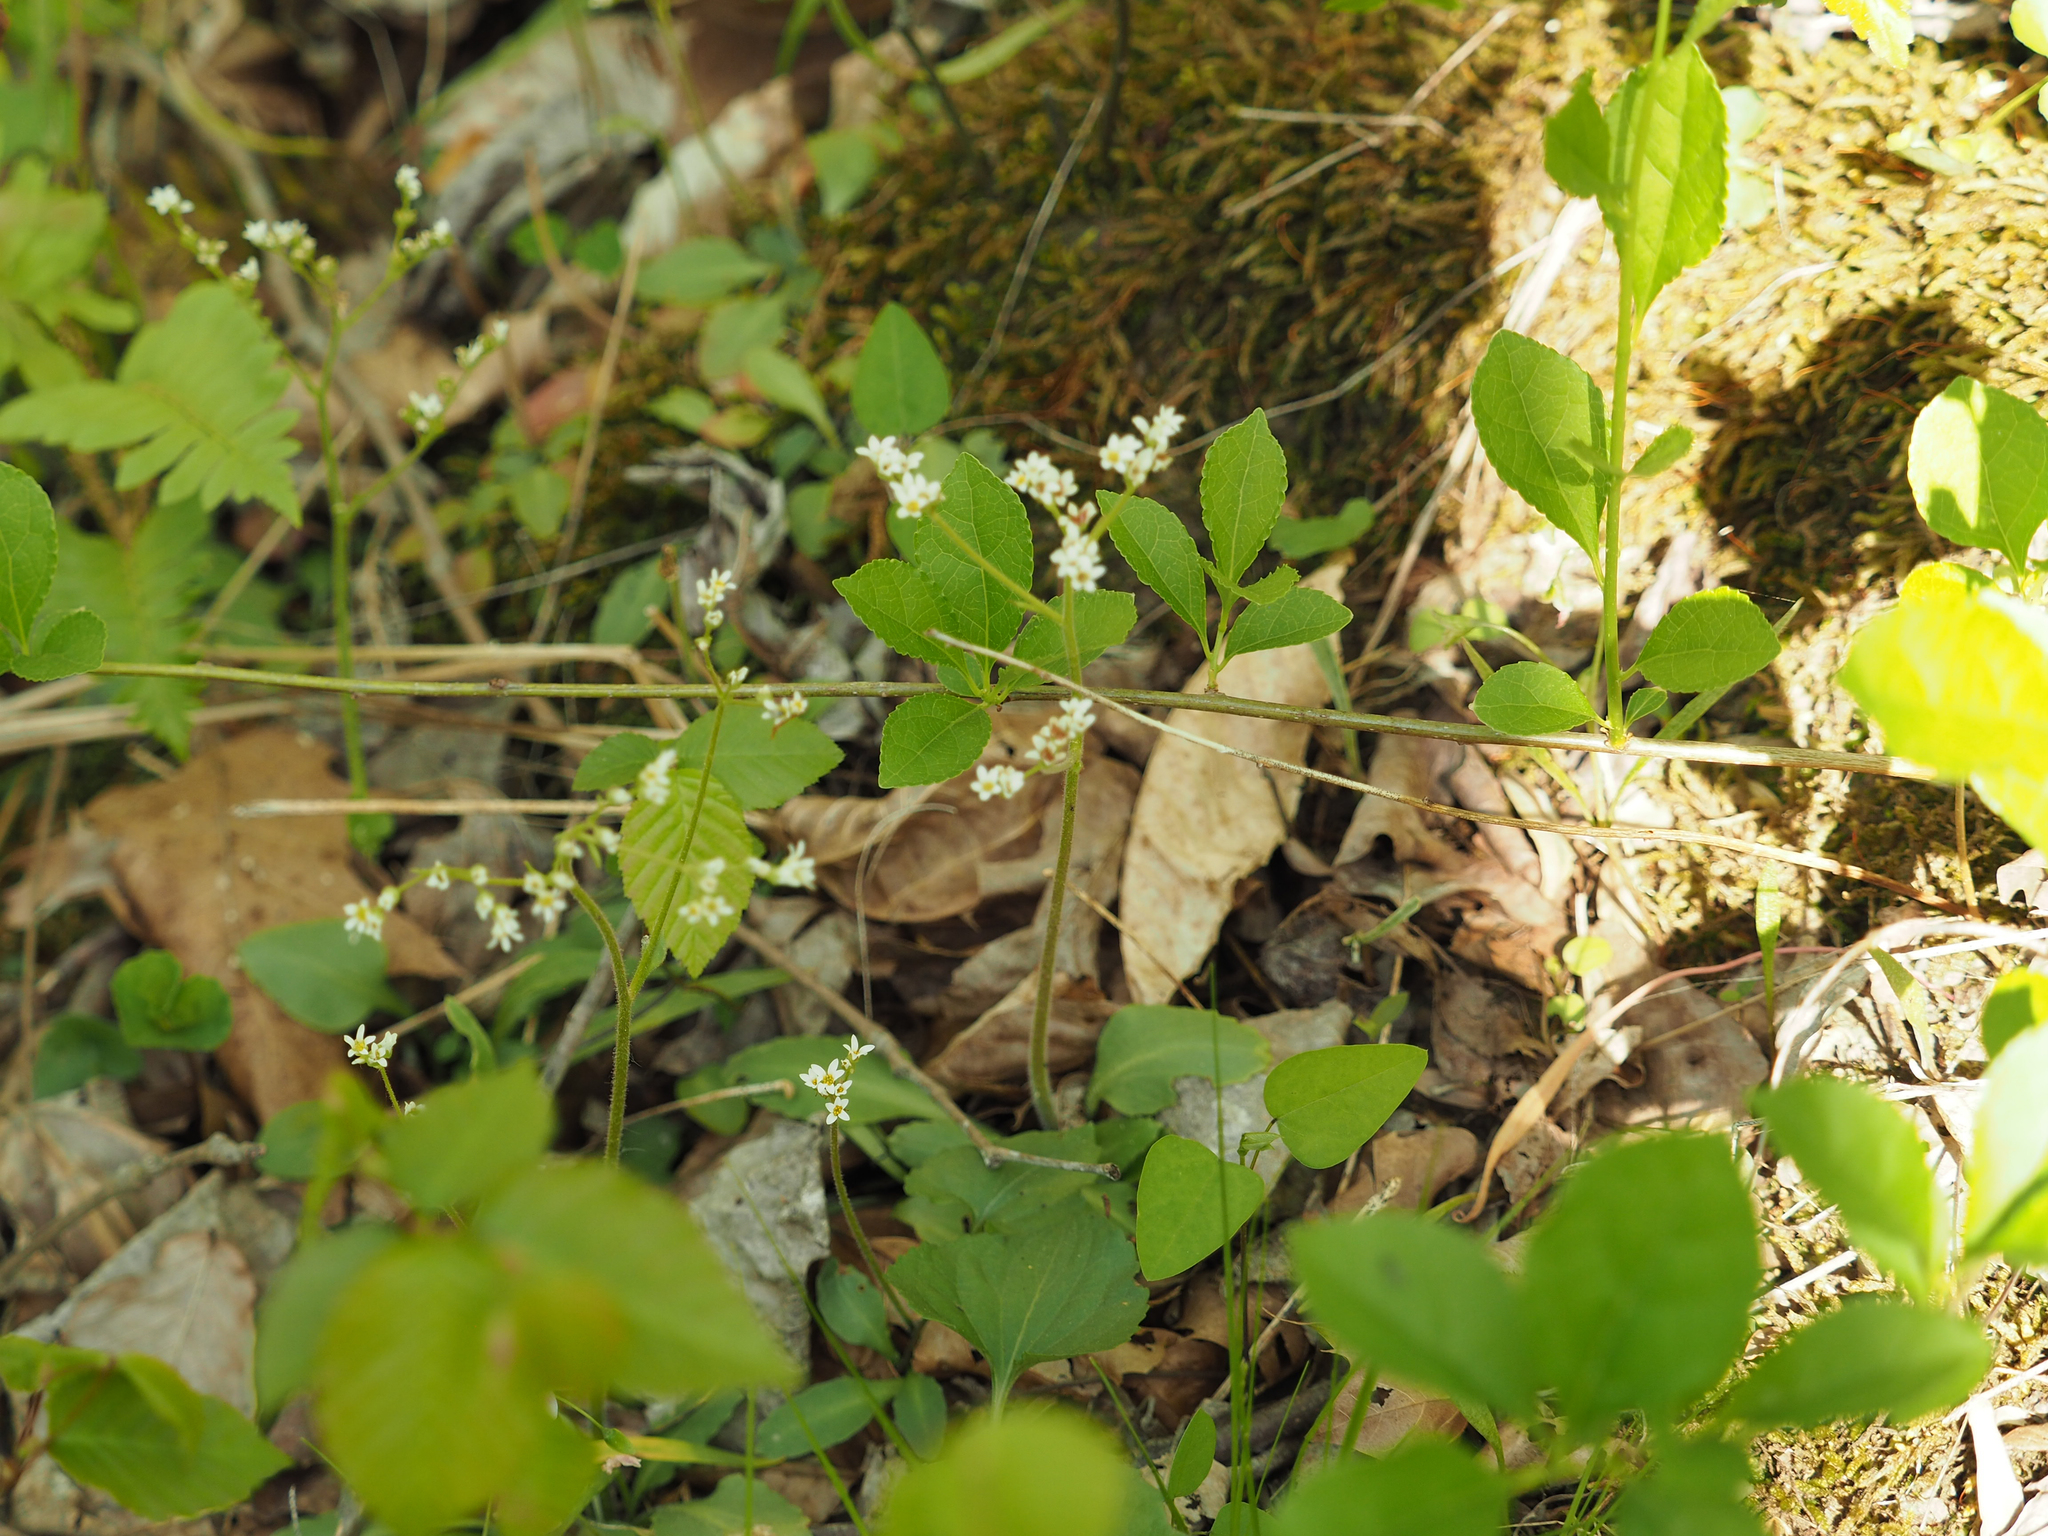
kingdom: Plantae
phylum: Tracheophyta
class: Magnoliopsida
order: Saxifragales
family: Saxifragaceae
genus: Micranthes
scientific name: Micranthes virginiensis
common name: Early saxifrage
